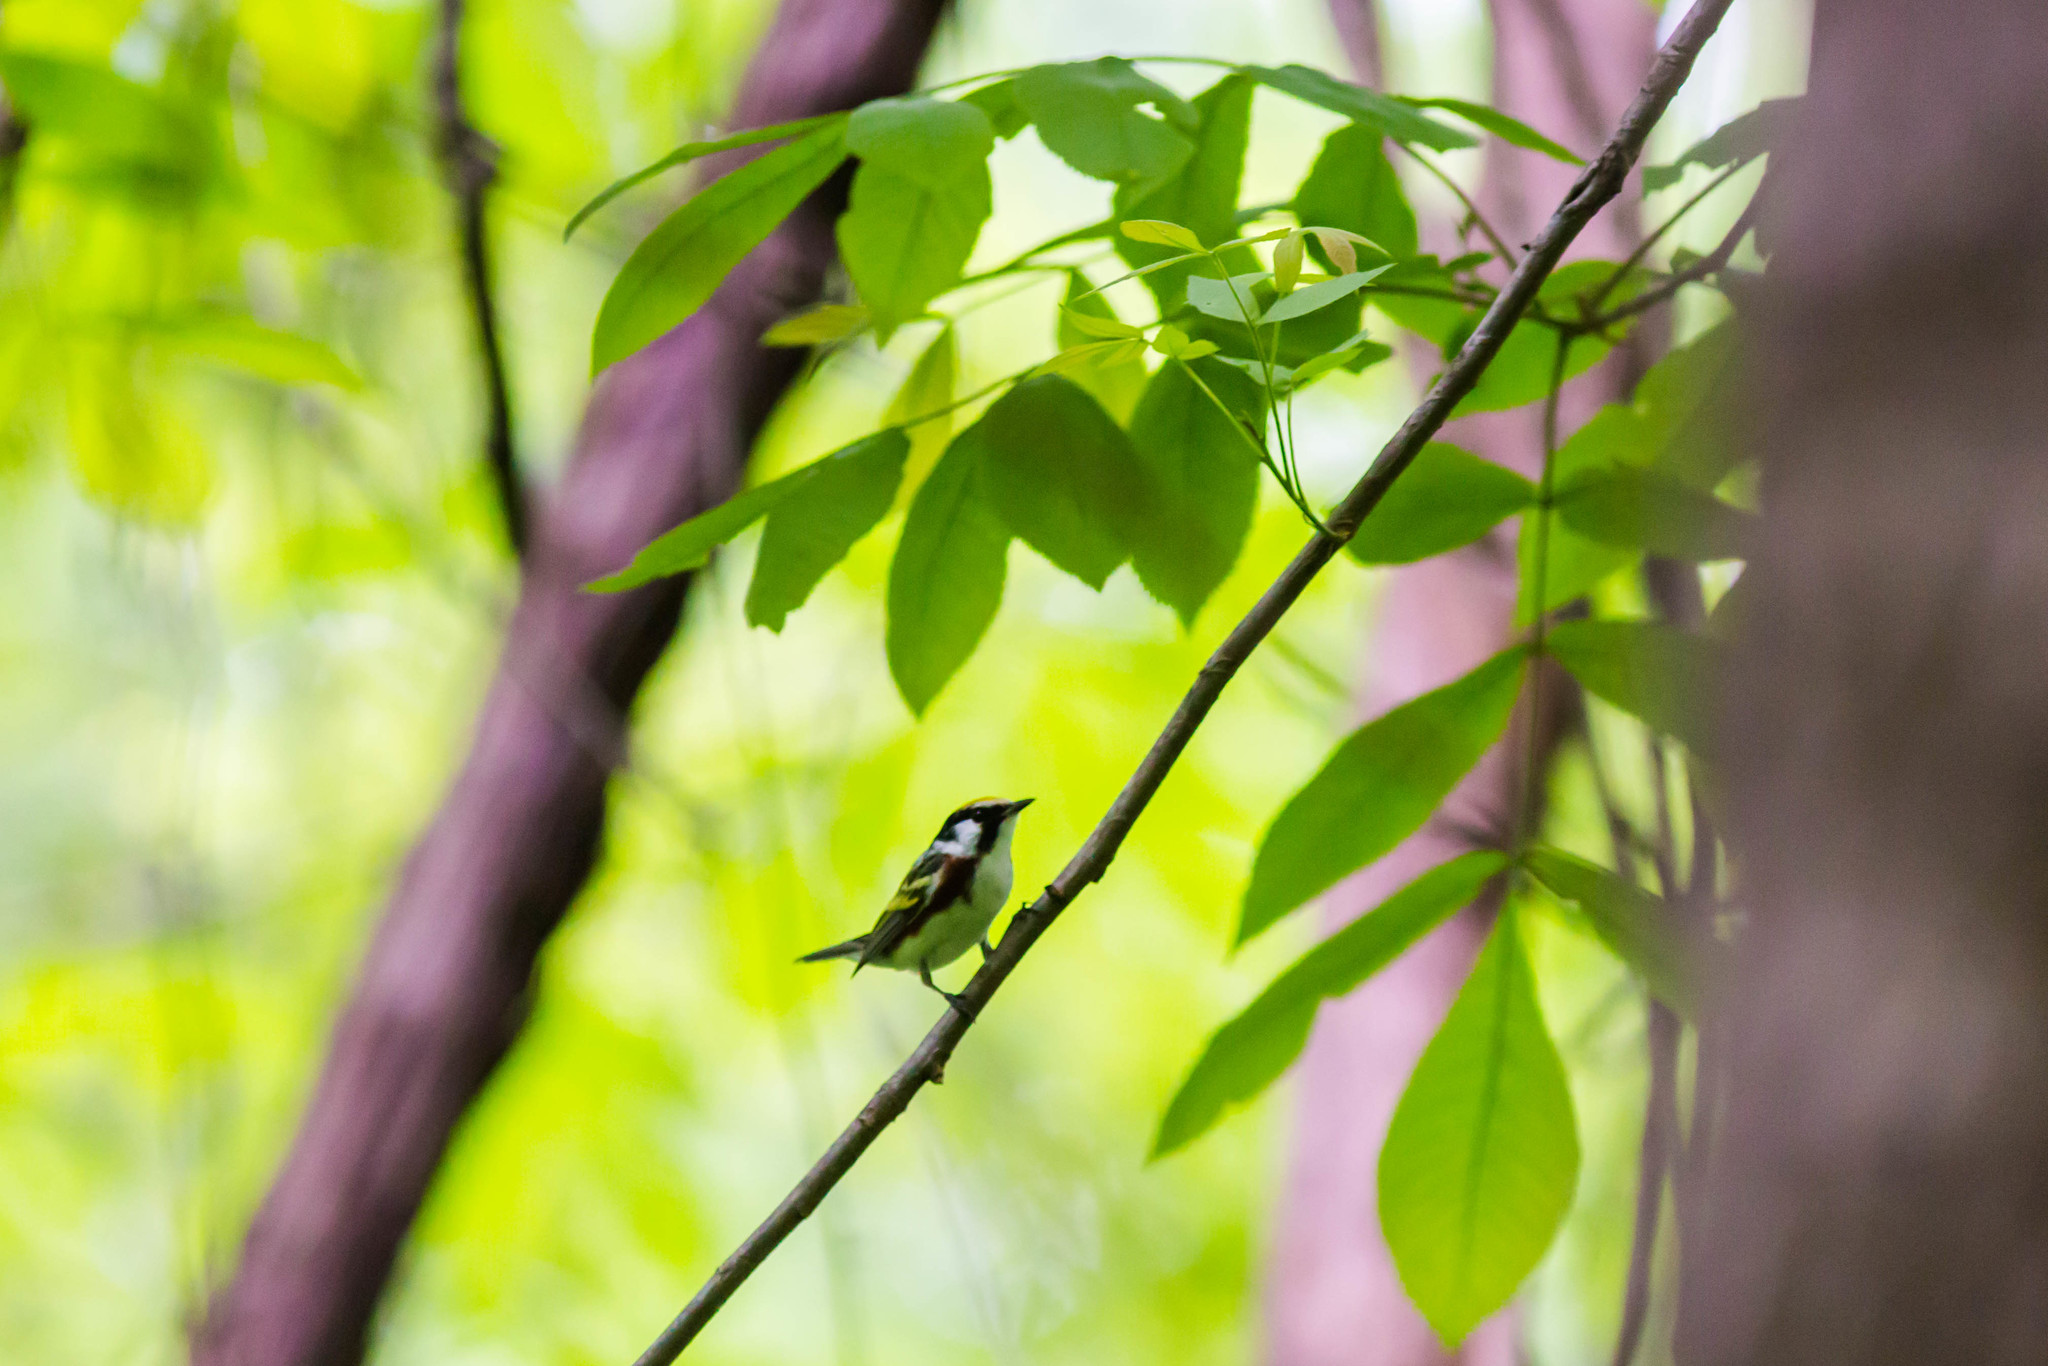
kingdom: Animalia
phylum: Chordata
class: Aves
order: Passeriformes
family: Parulidae
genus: Setophaga
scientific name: Setophaga pensylvanica
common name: Chestnut-sided warbler
